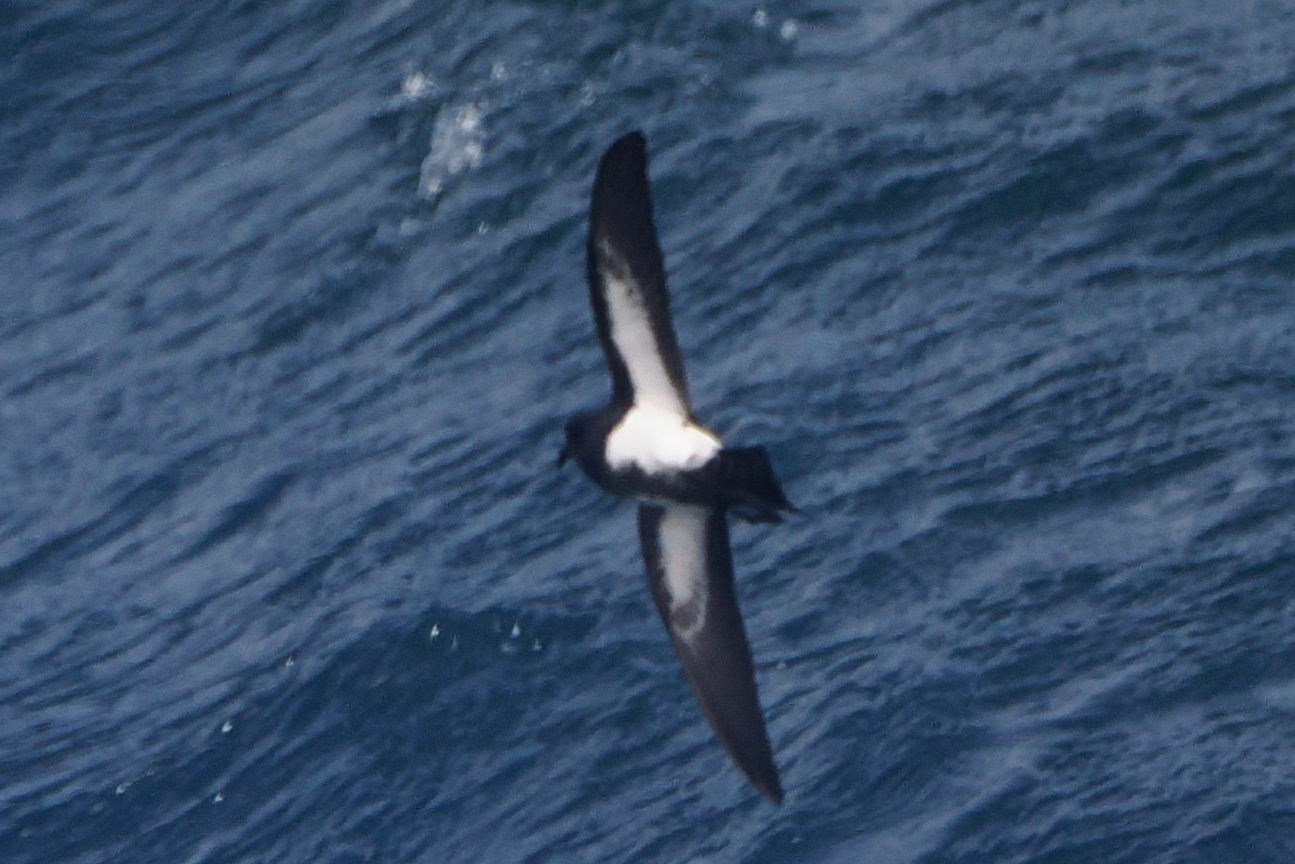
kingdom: Animalia
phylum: Chordata
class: Aves
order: Procellariiformes
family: Hydrobatidae
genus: Fregetta
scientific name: Fregetta tropica
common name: Black-bellied storm-petrel
